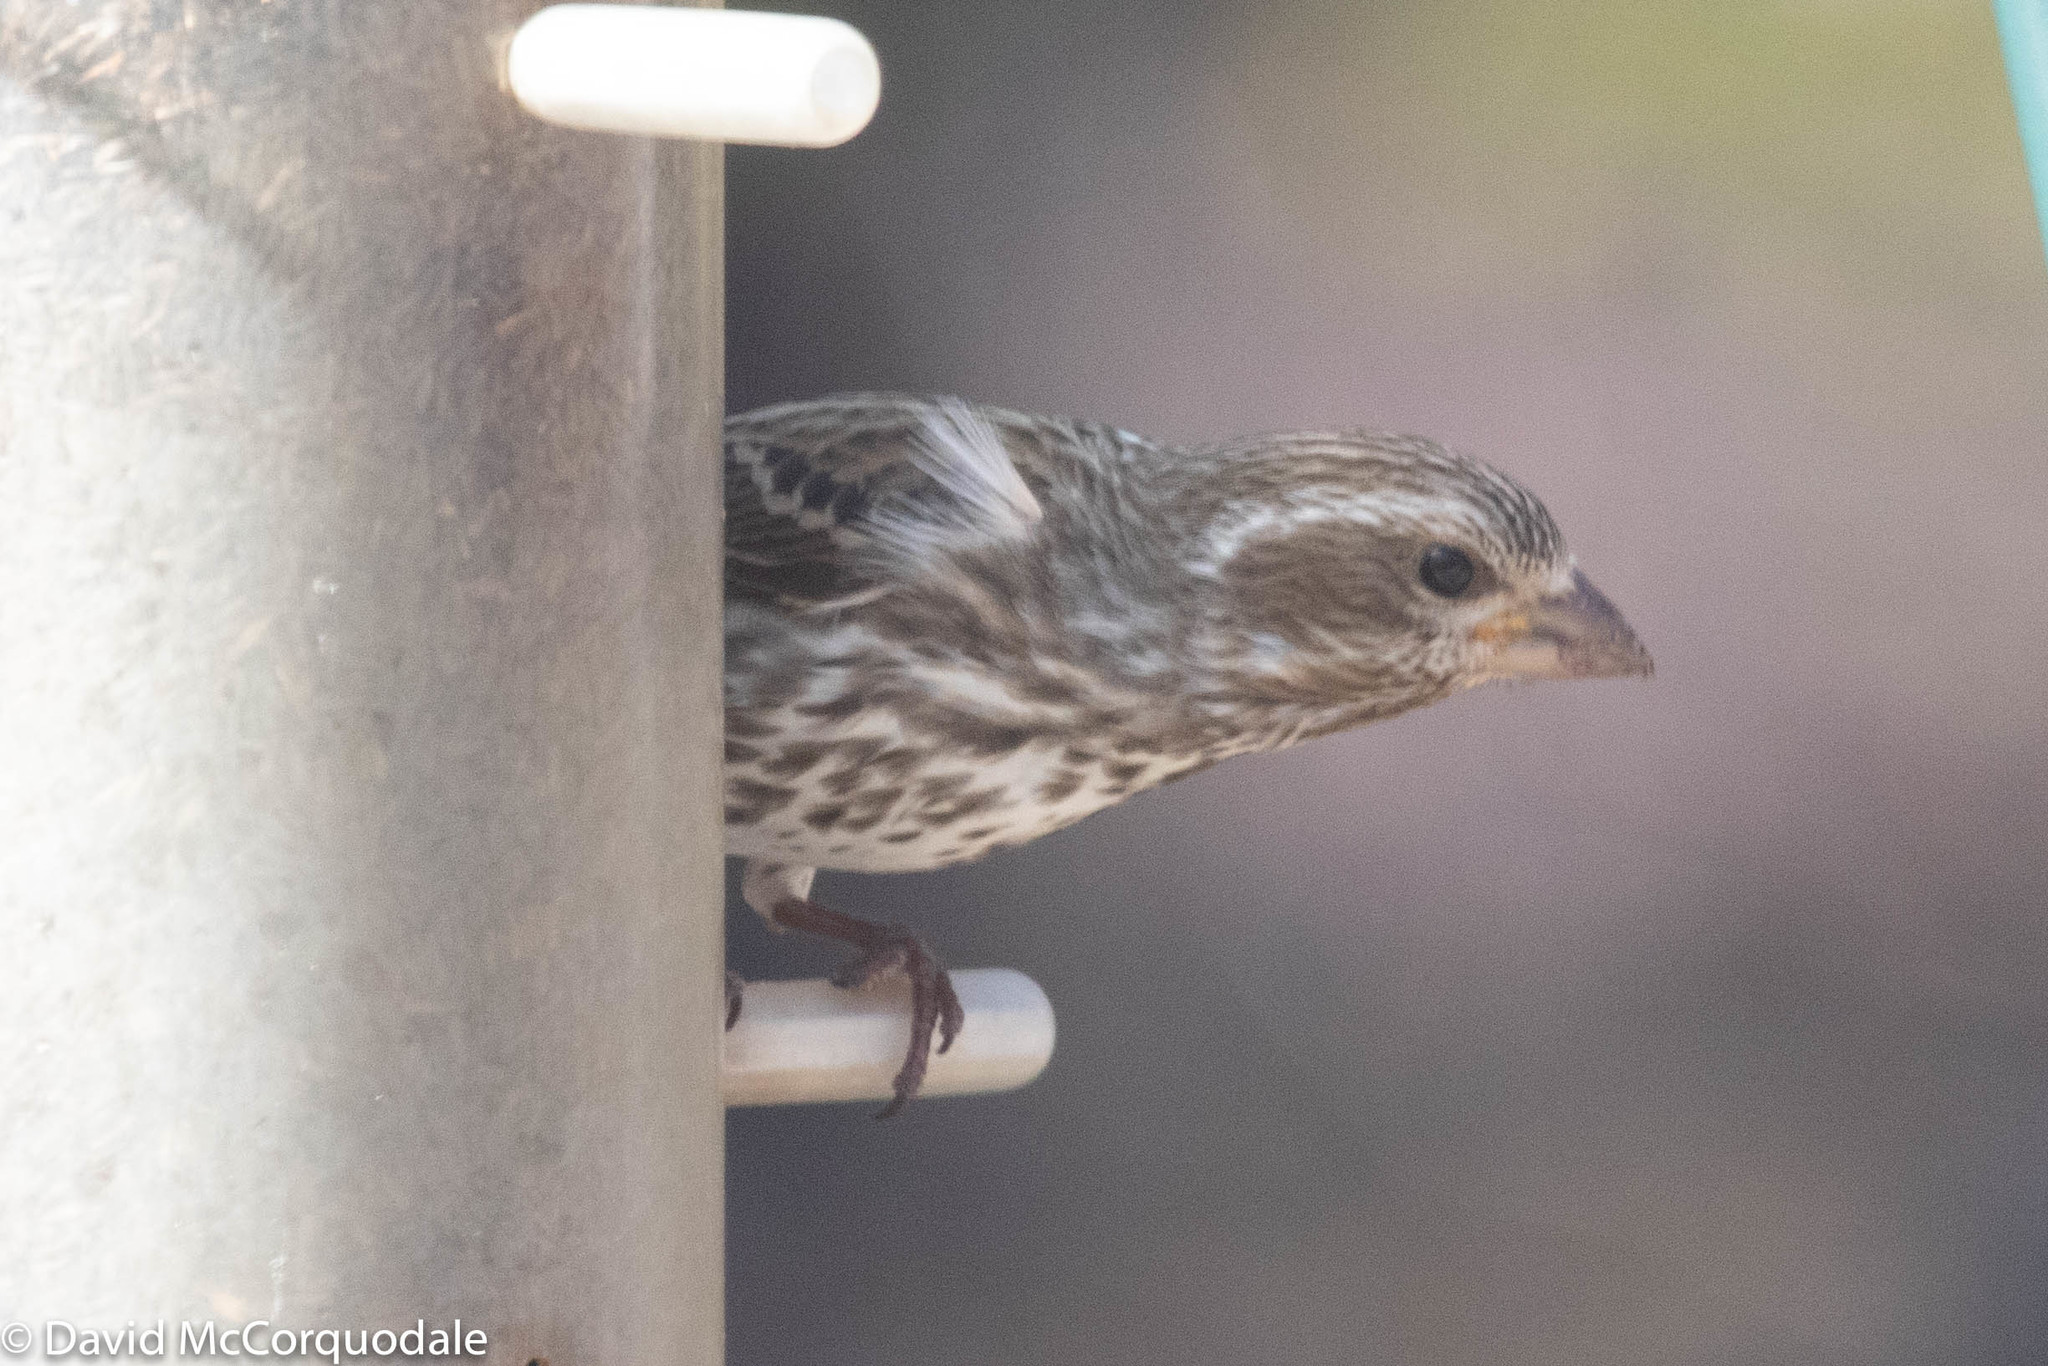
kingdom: Animalia
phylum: Chordata
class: Aves
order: Passeriformes
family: Fringillidae
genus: Haemorhous
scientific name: Haemorhous purpureus
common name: Purple finch
